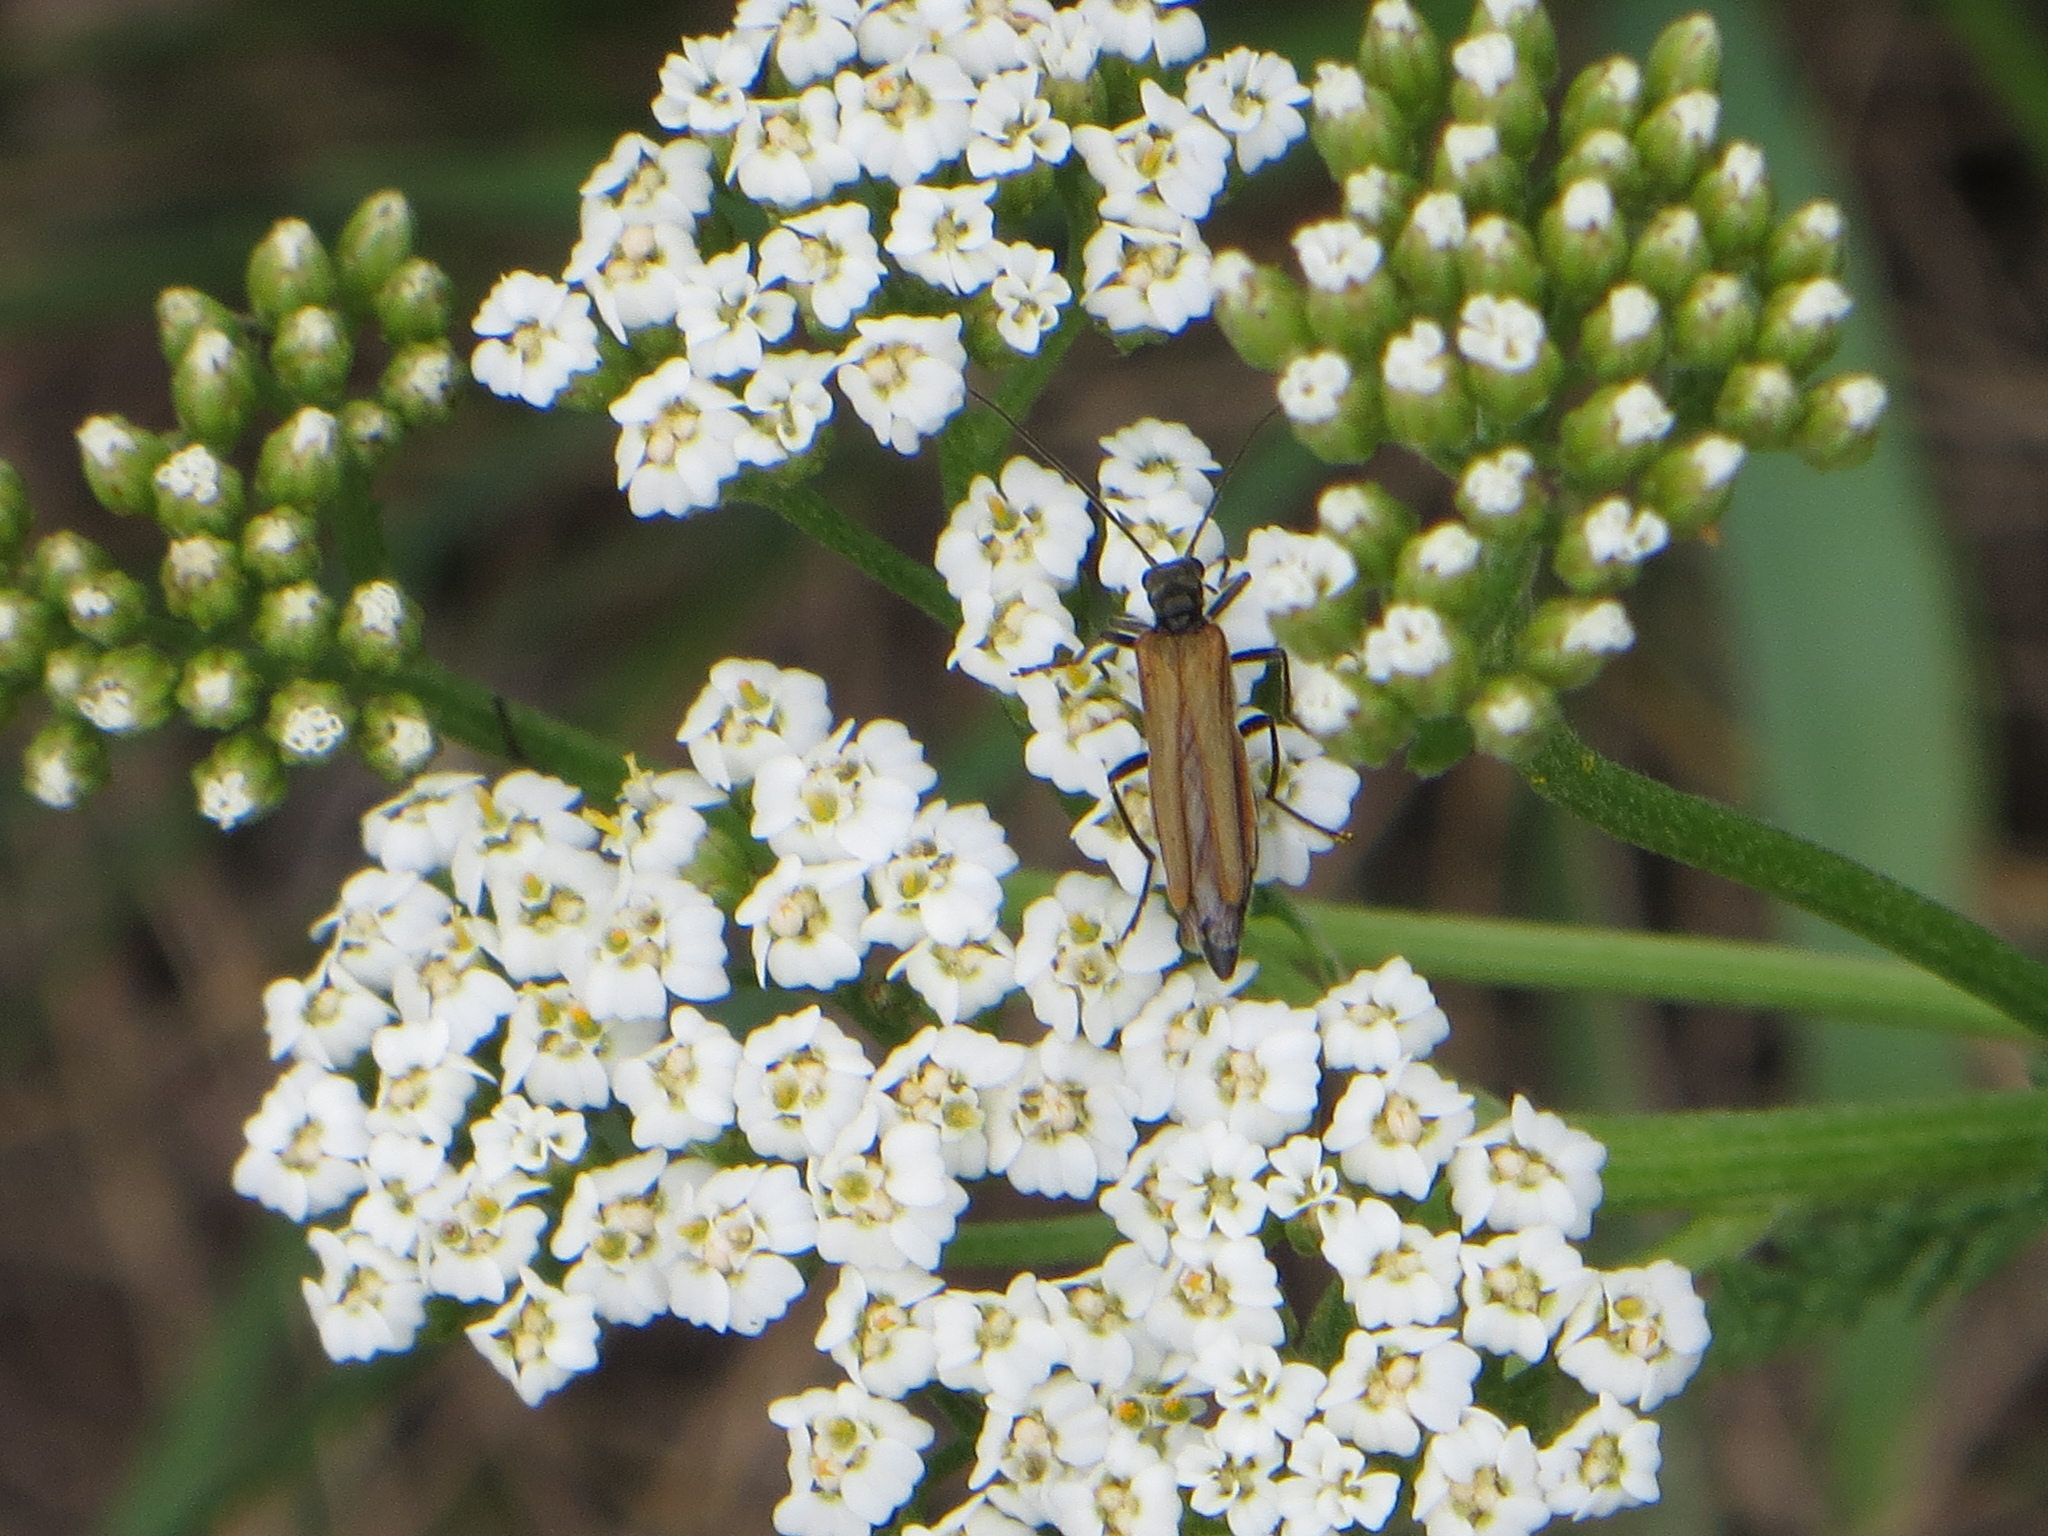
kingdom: Animalia
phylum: Arthropoda
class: Insecta
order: Coleoptera
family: Oedemeridae
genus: Oedemera
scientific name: Oedemera femorata
